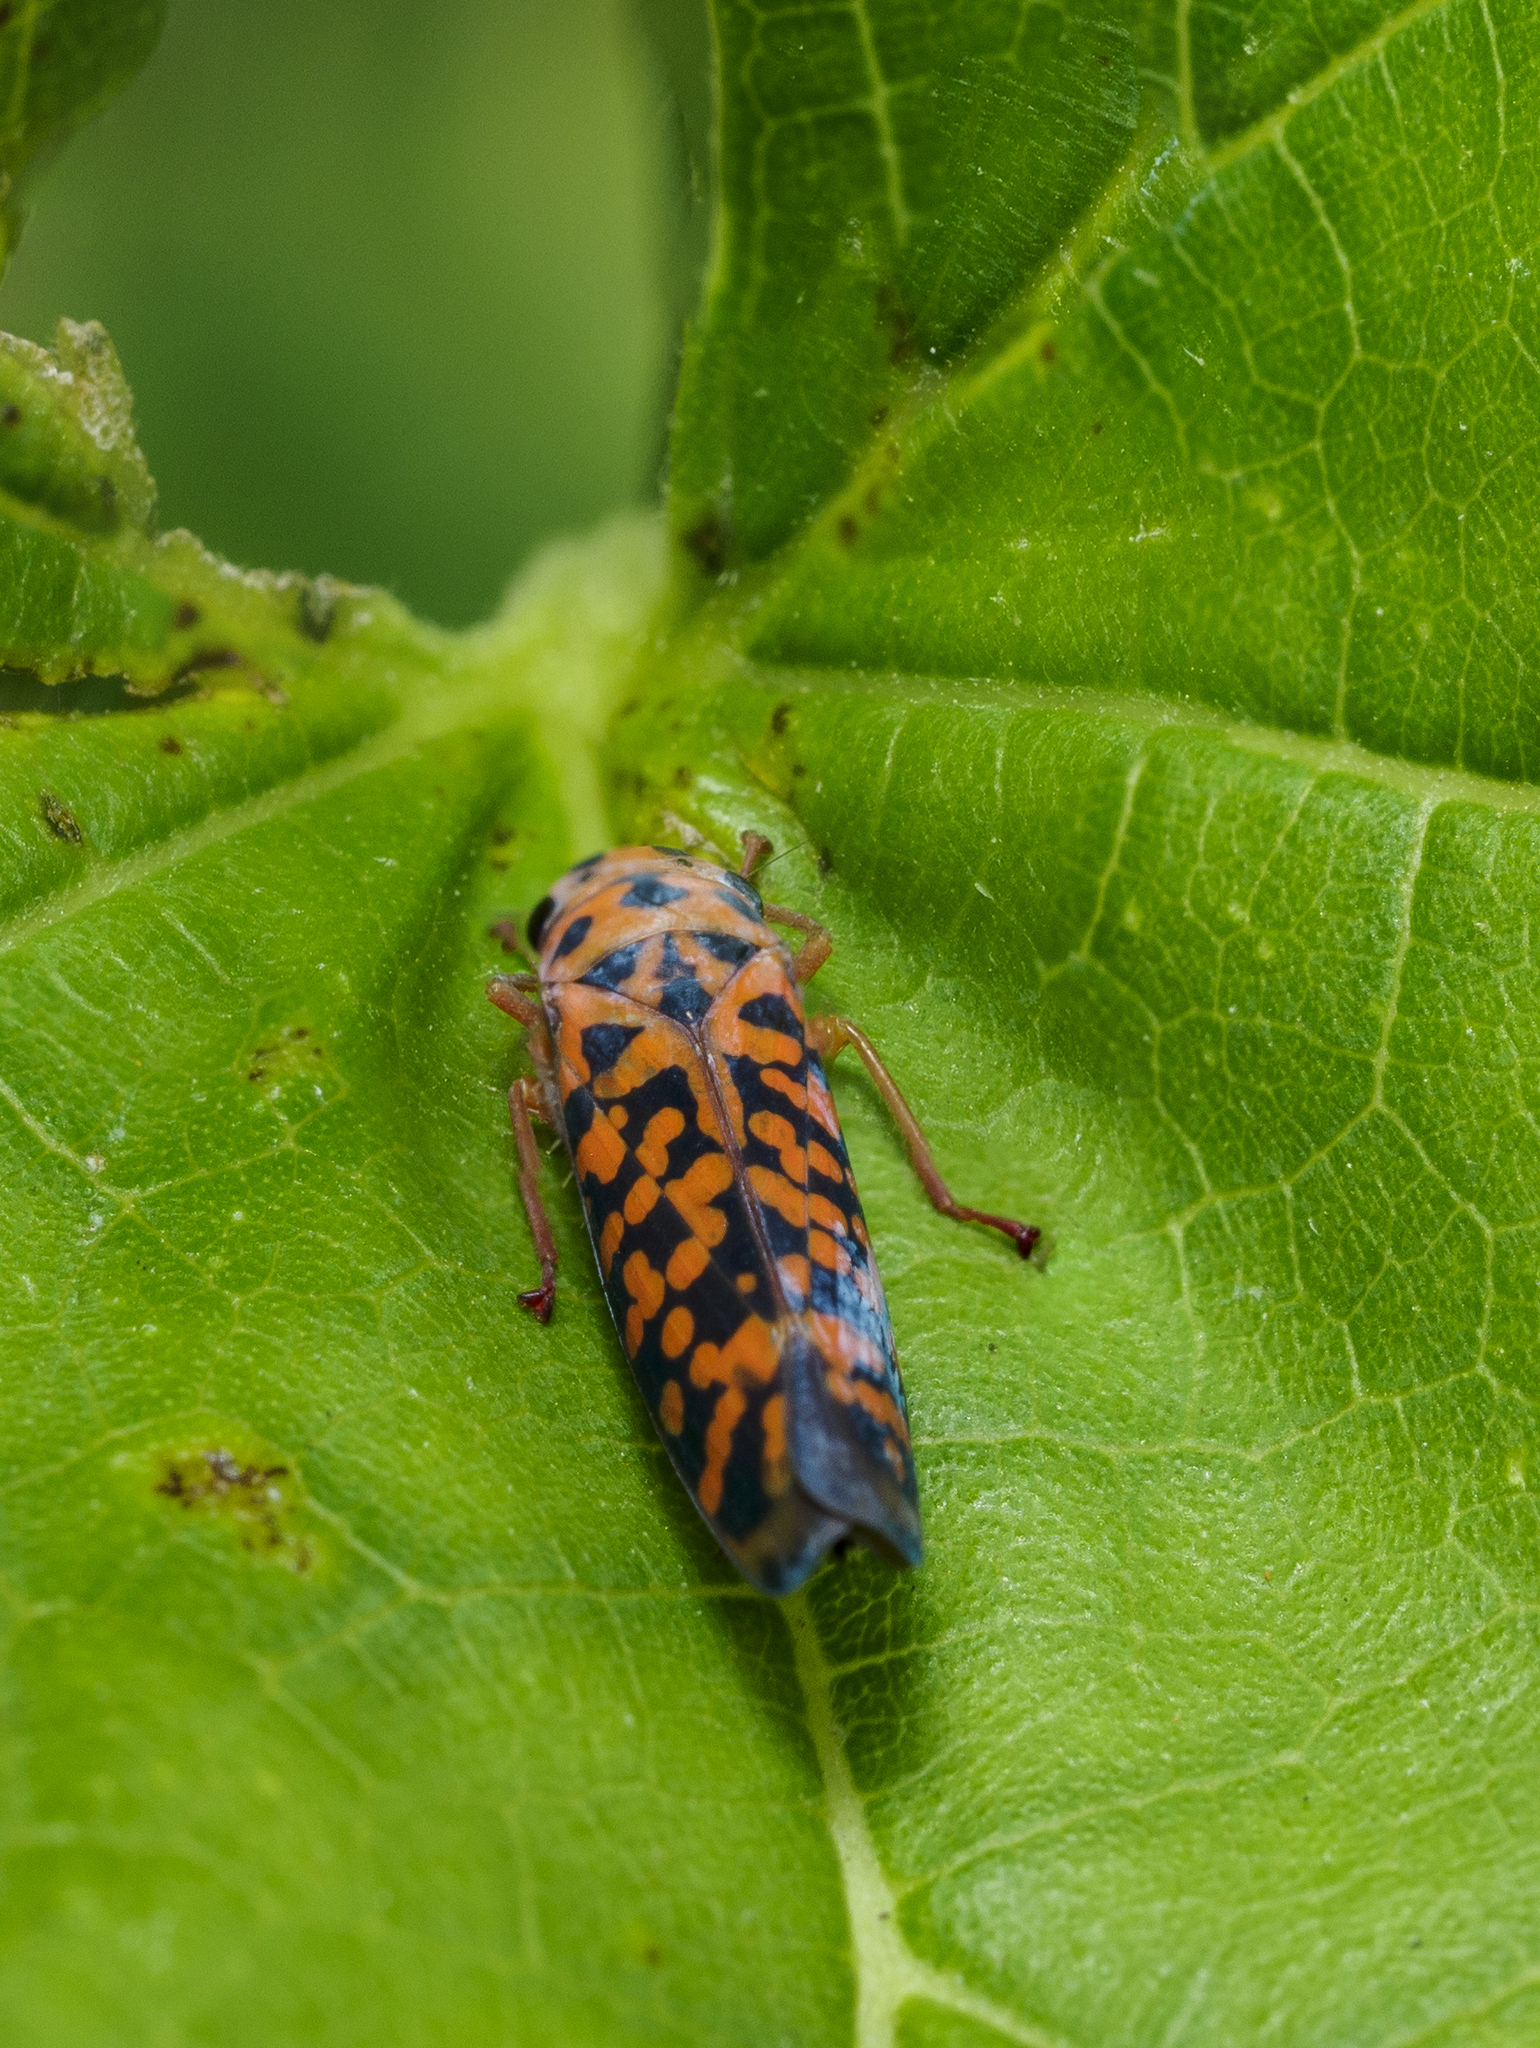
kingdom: Animalia
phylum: Arthropoda
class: Insecta
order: Hemiptera
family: Cicadellidae
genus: Pawiloma
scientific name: Pawiloma victima
